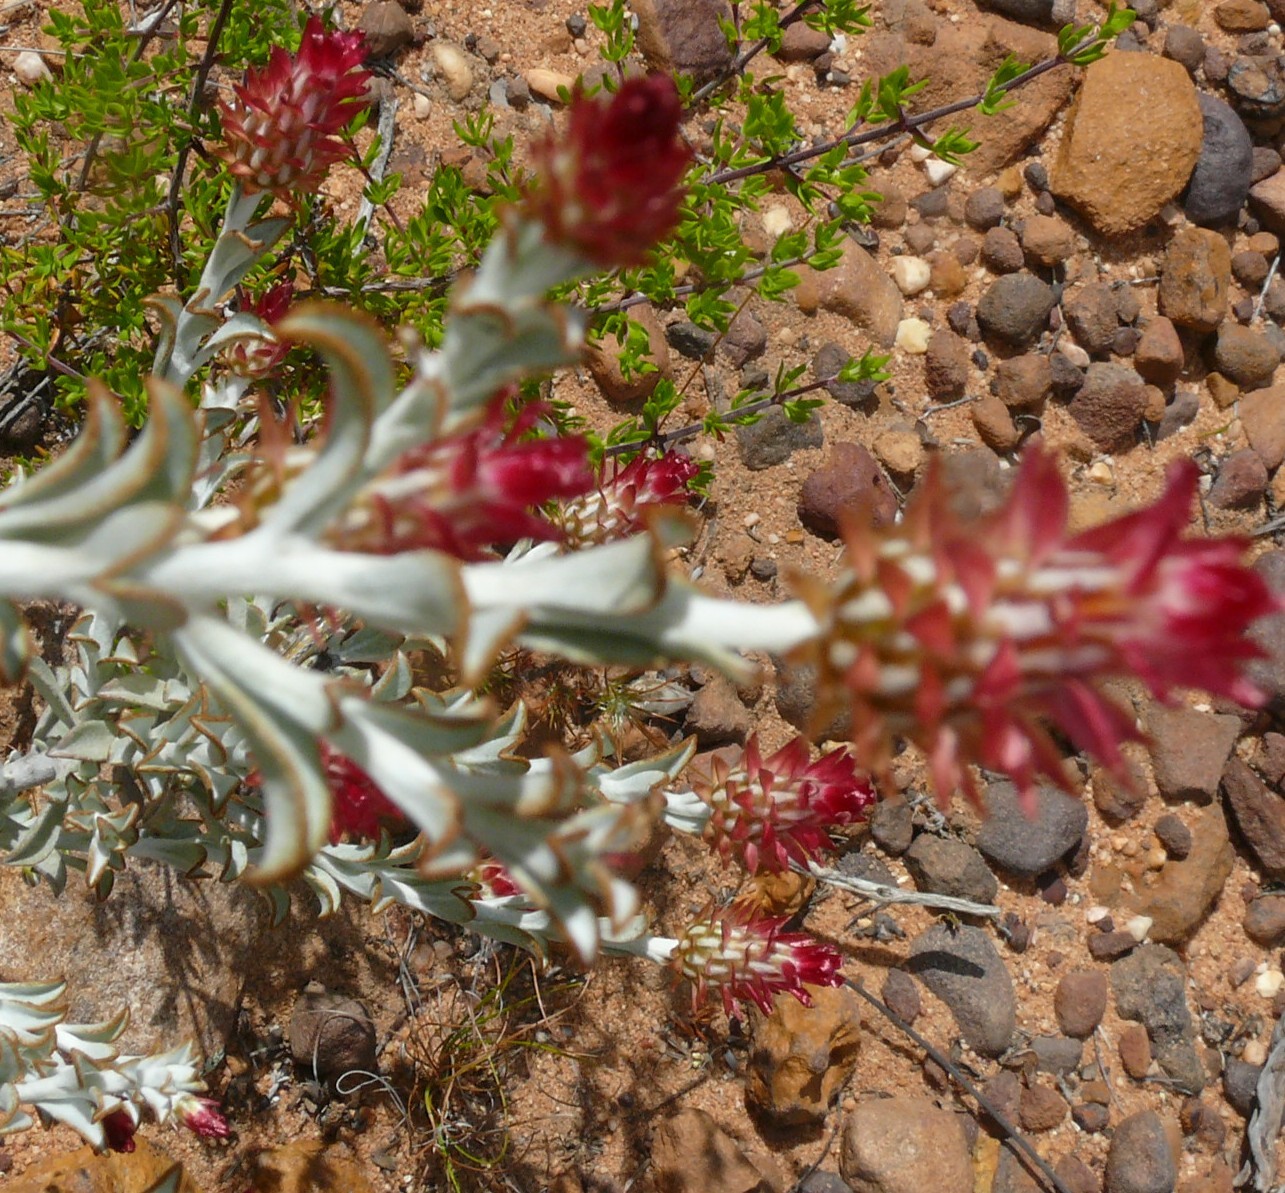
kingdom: Plantae
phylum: Tracheophyta
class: Magnoliopsida
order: Asterales
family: Asteraceae
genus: Syncarpha
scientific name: Syncarpha dregeana
